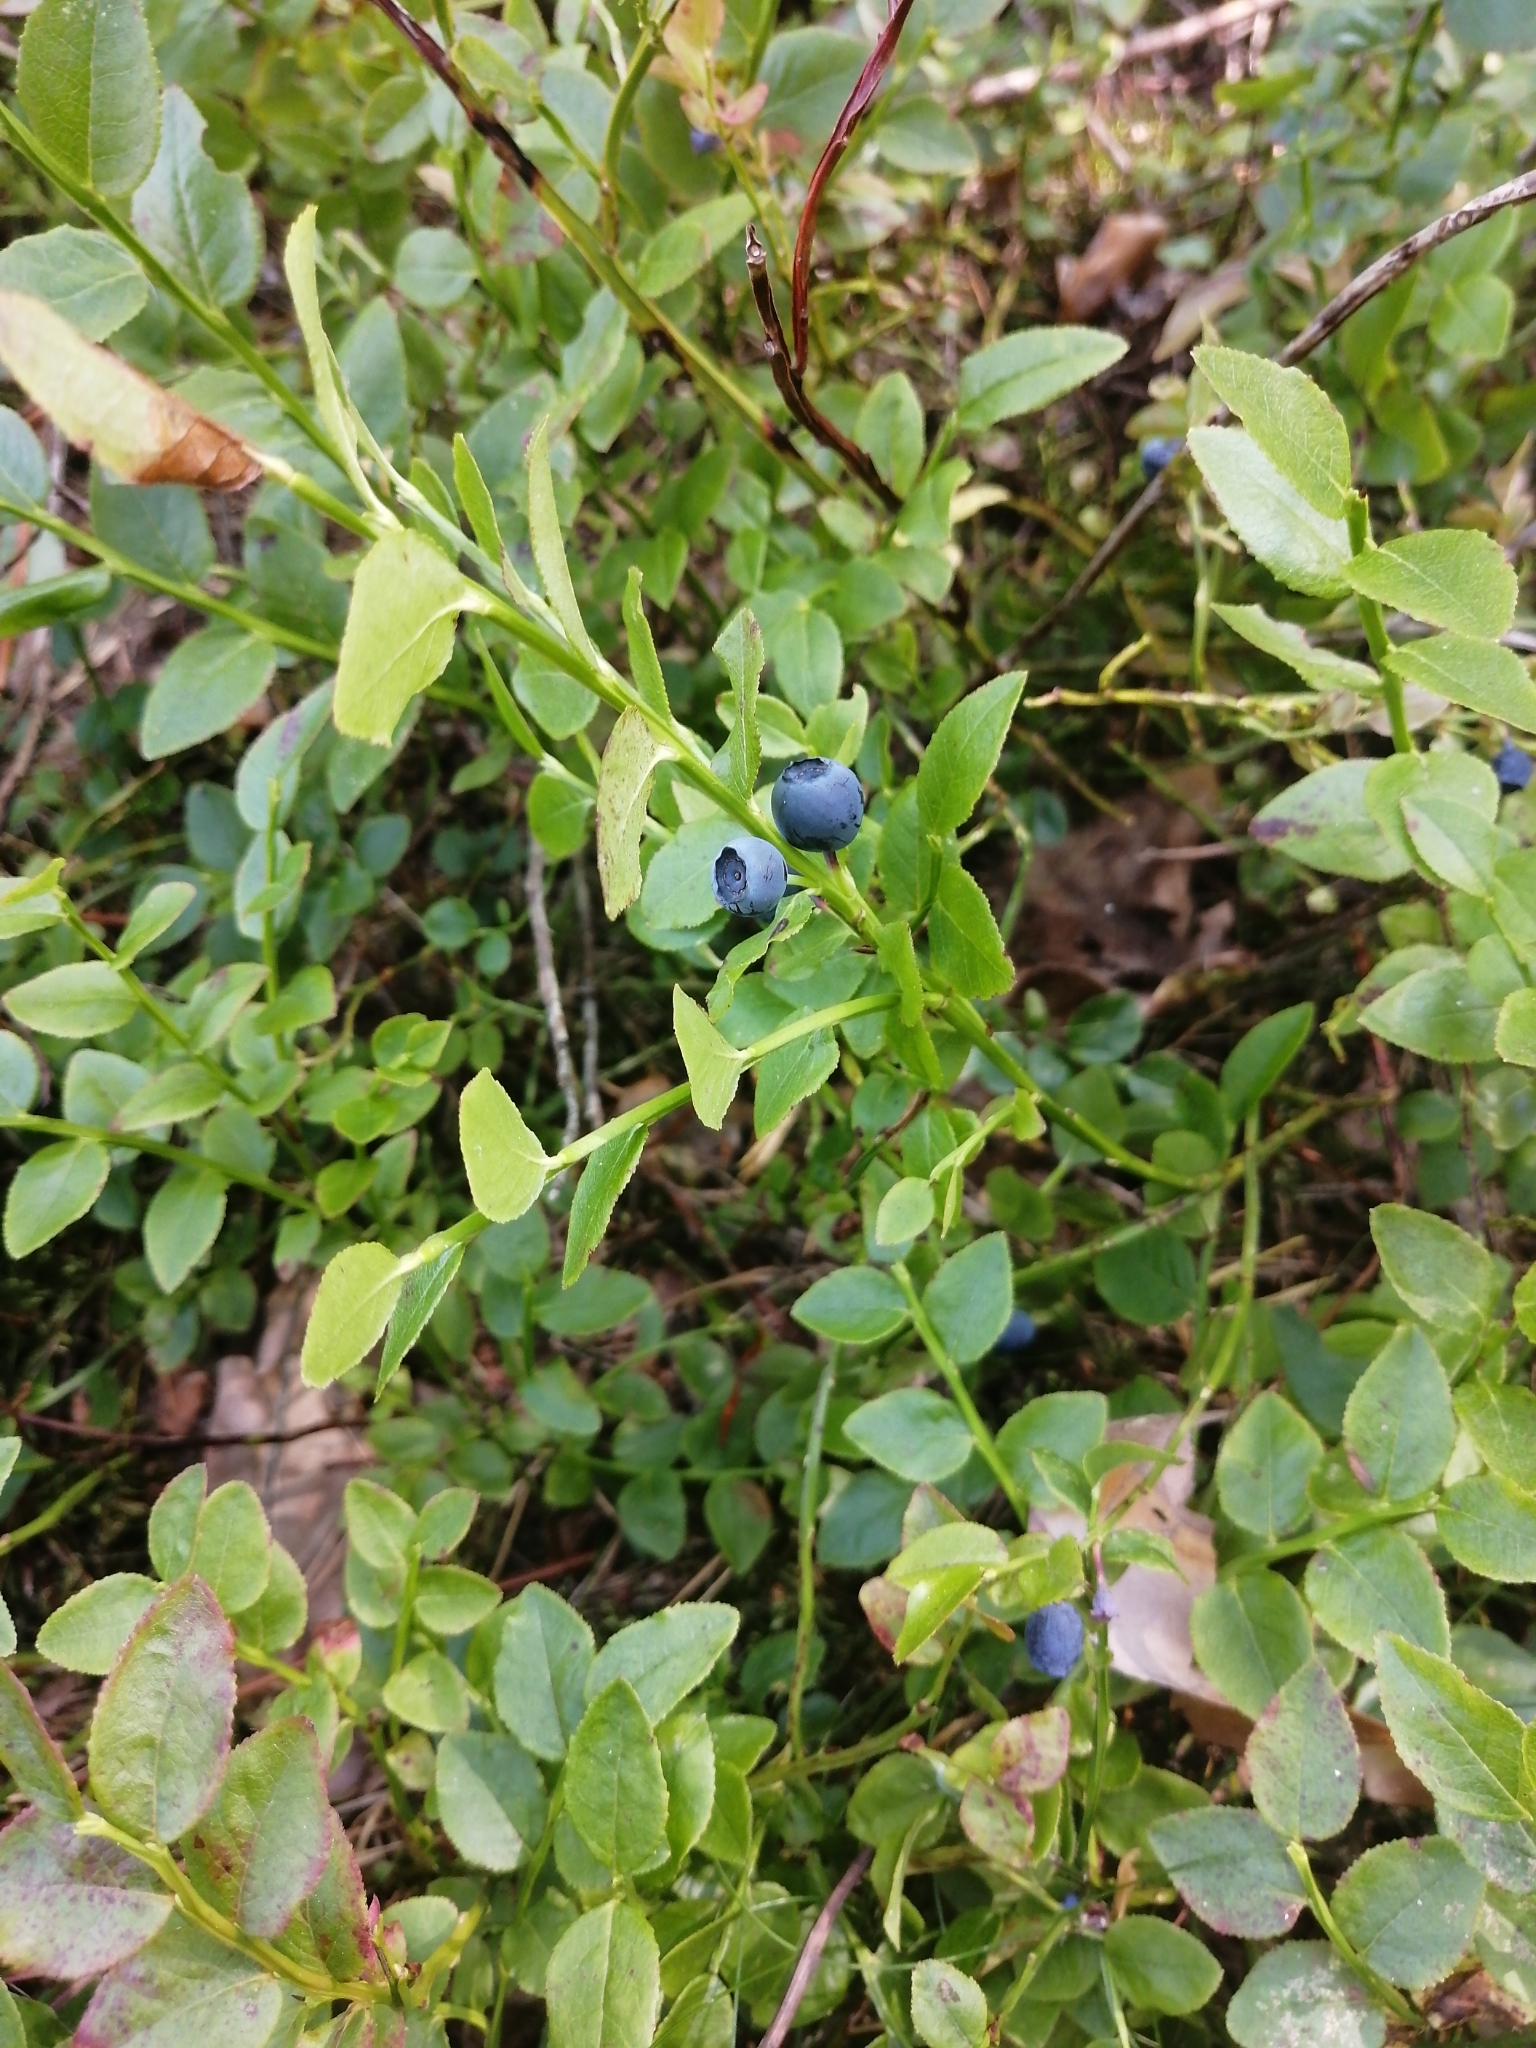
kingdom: Plantae
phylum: Tracheophyta
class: Magnoliopsida
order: Ericales
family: Ericaceae
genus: Vaccinium
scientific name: Vaccinium myrtillus
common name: Bilberry
